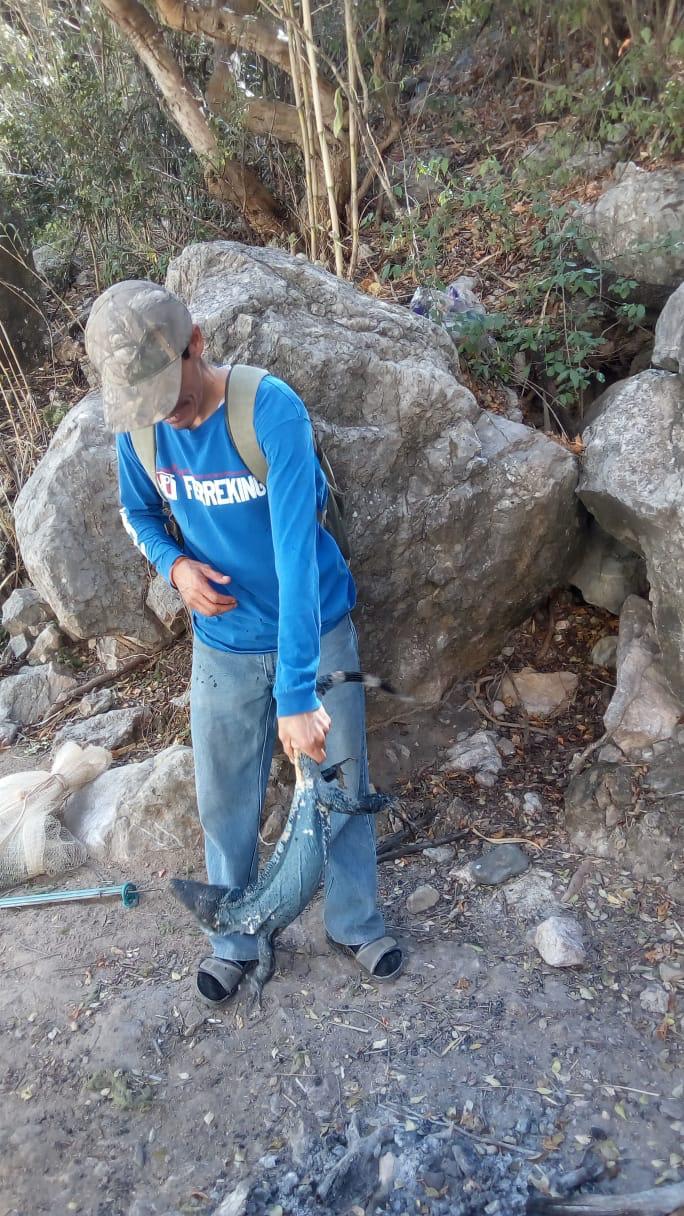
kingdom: Animalia
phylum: Chordata
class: Squamata
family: Iguanidae
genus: Ctenosaura
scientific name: Ctenosaura pectinata
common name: Guerreran spiny-tailed iguana
